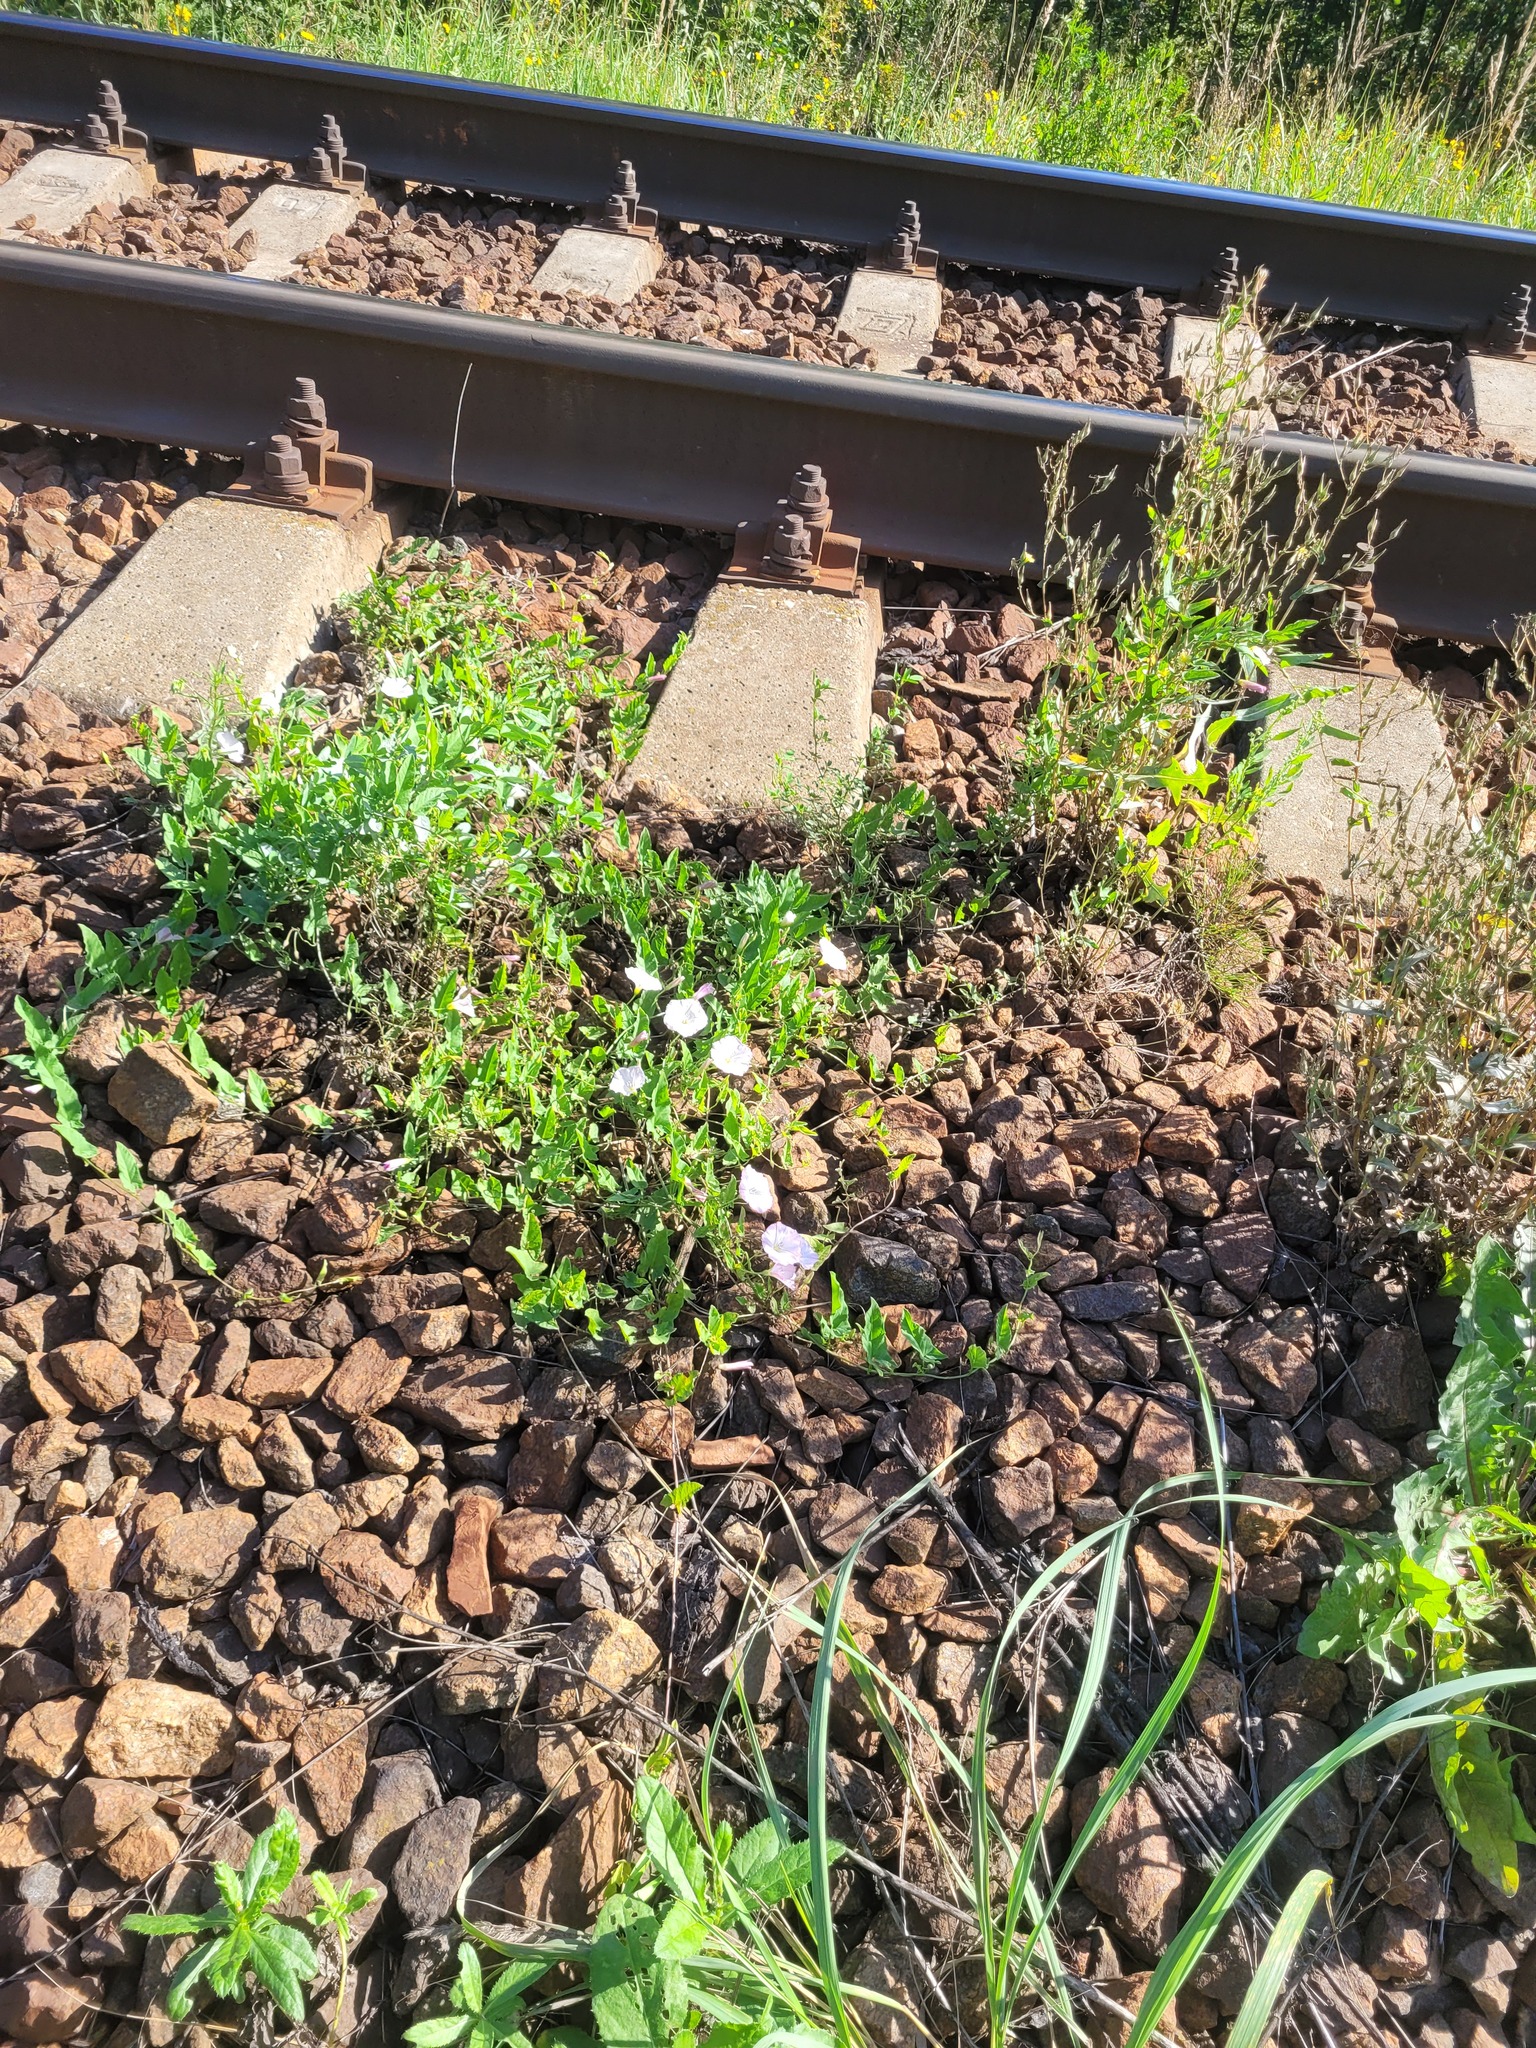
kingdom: Plantae
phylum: Tracheophyta
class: Magnoliopsida
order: Solanales
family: Convolvulaceae
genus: Convolvulus
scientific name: Convolvulus arvensis
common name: Field bindweed
